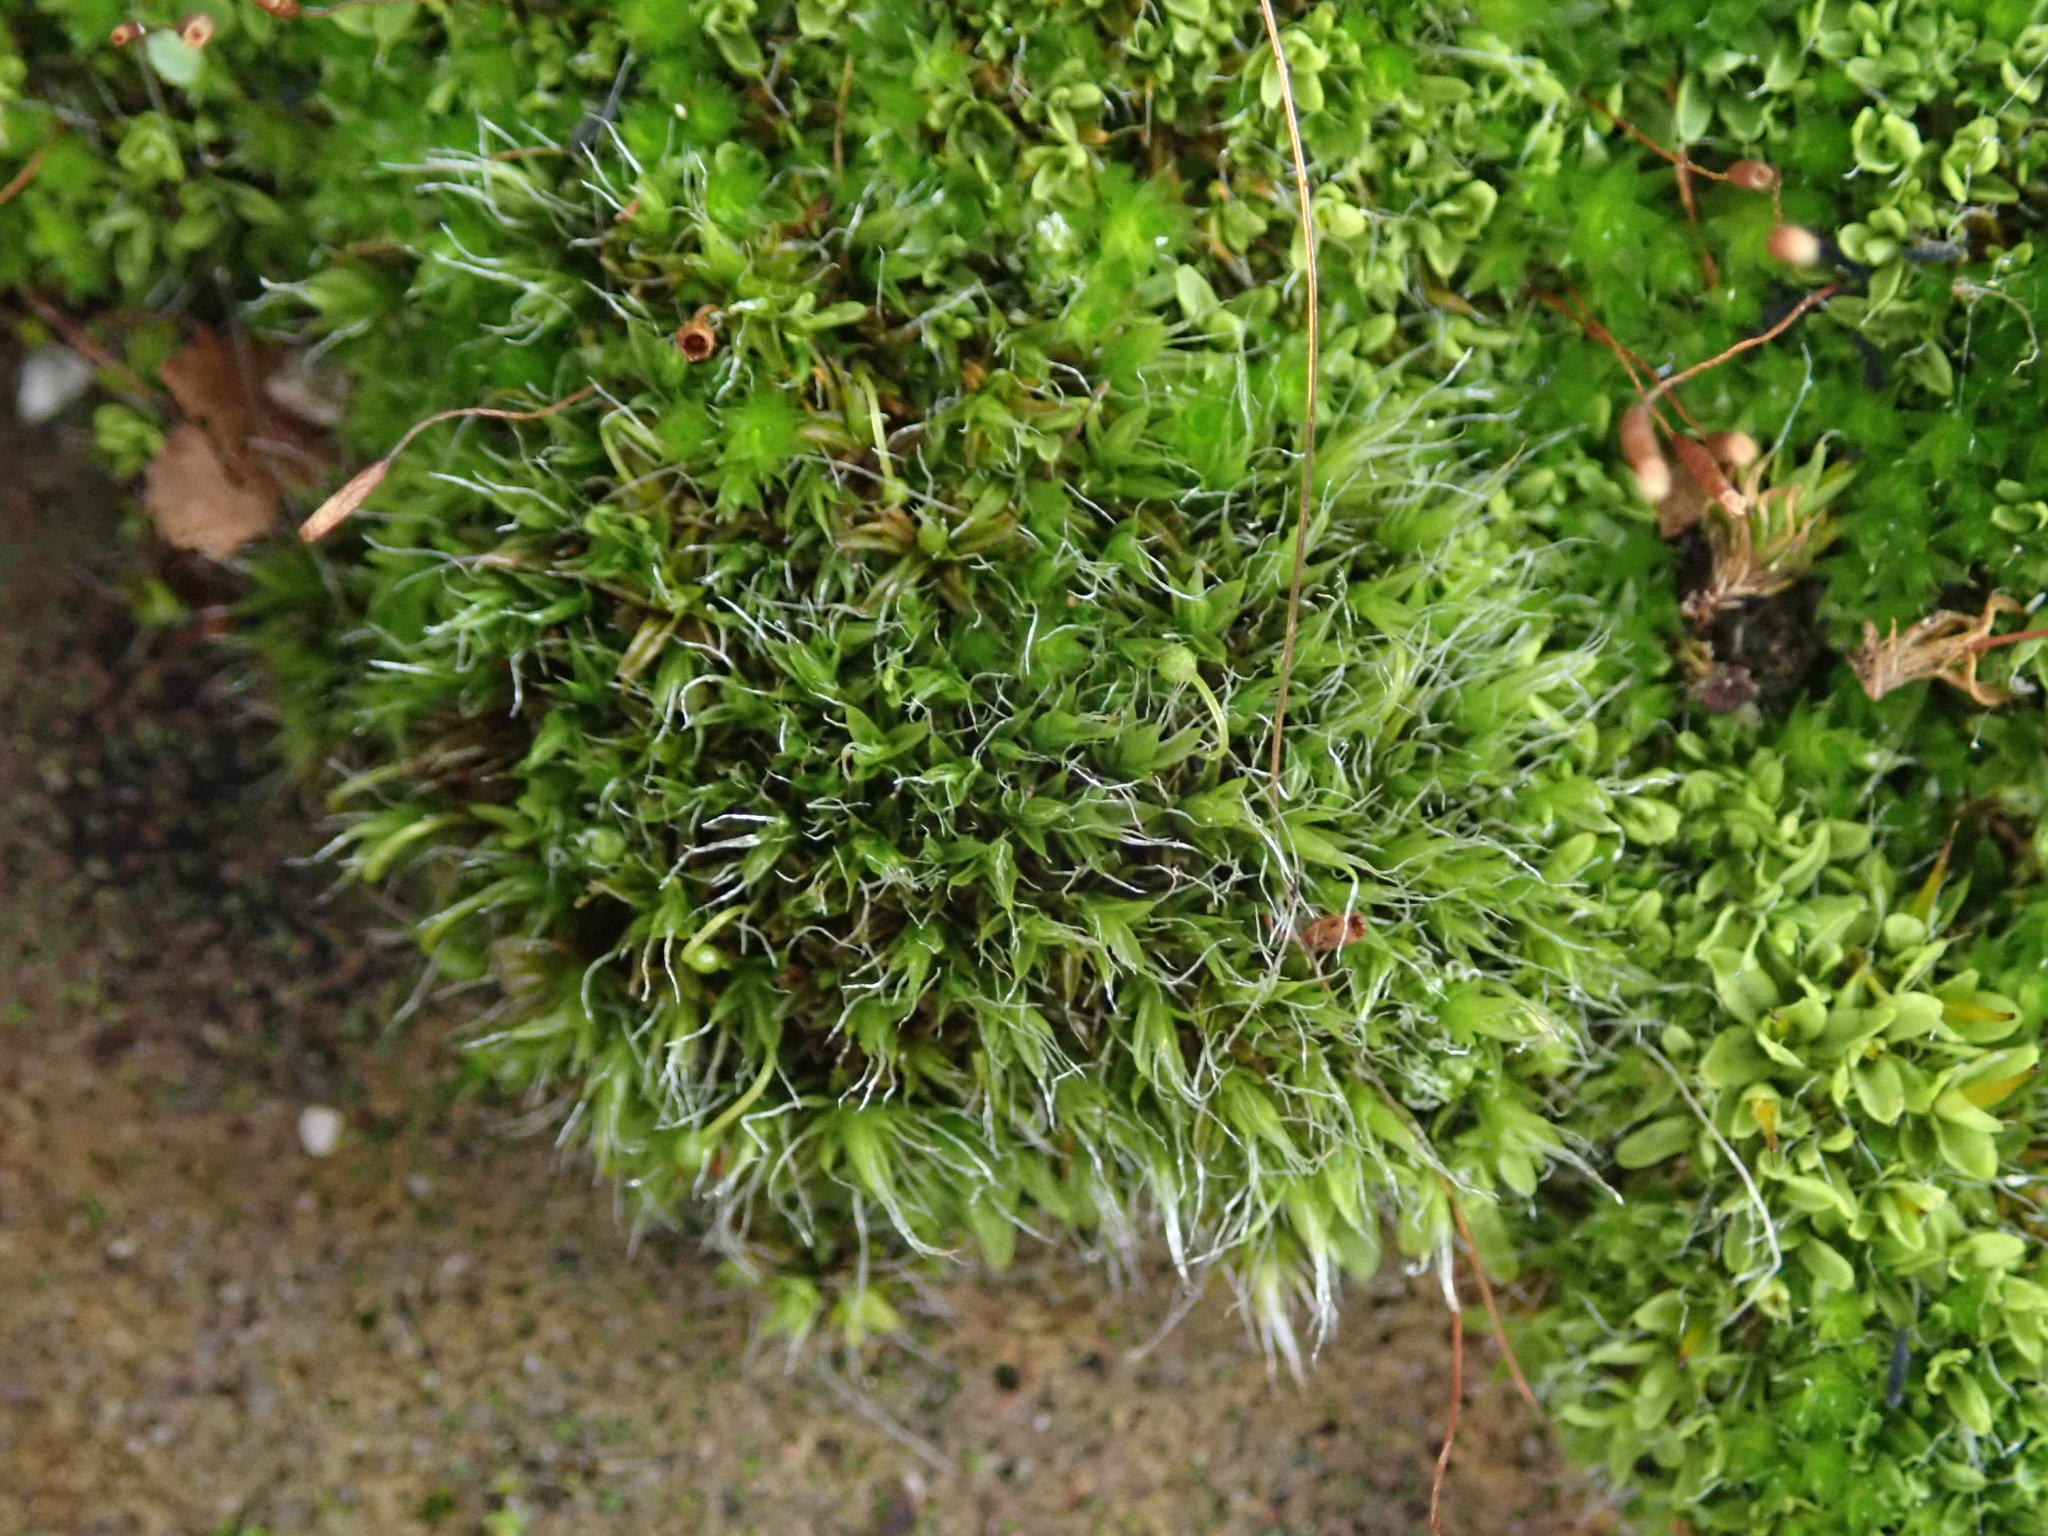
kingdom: Plantae
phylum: Bryophyta
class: Bryopsida
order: Grimmiales
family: Grimmiaceae
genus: Grimmia
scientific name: Grimmia pulvinata
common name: Grey-cushioned grimmia
